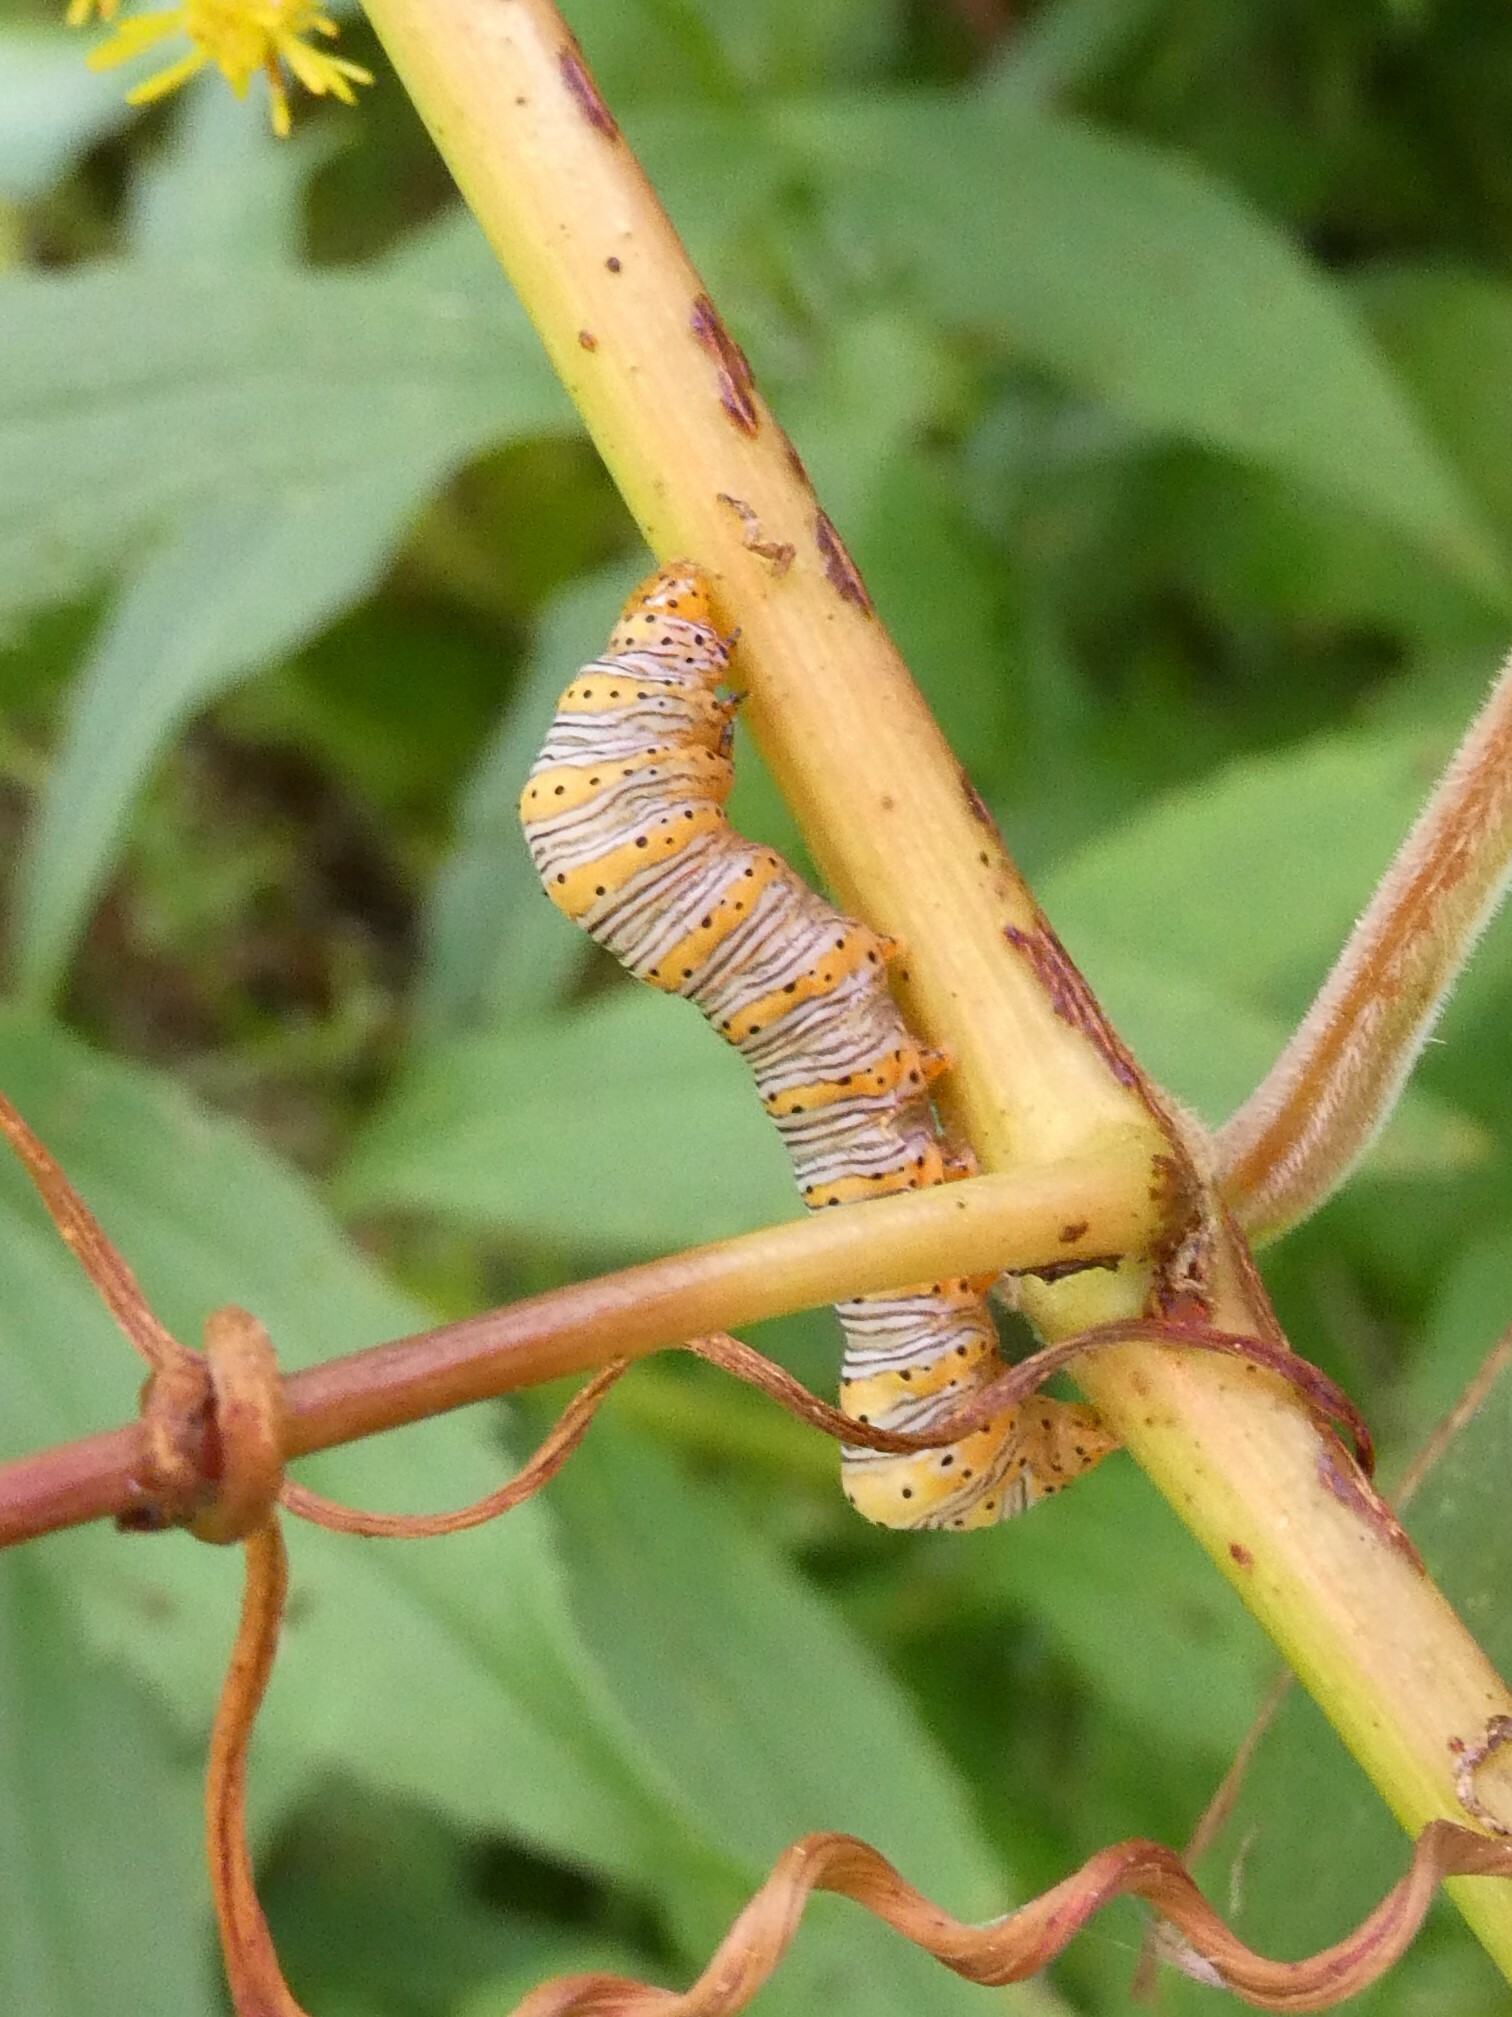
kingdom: Animalia
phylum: Arthropoda
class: Insecta
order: Lepidoptera
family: Noctuidae
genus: Eudryas
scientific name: Eudryas grata
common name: Beautiful wood-nymph
